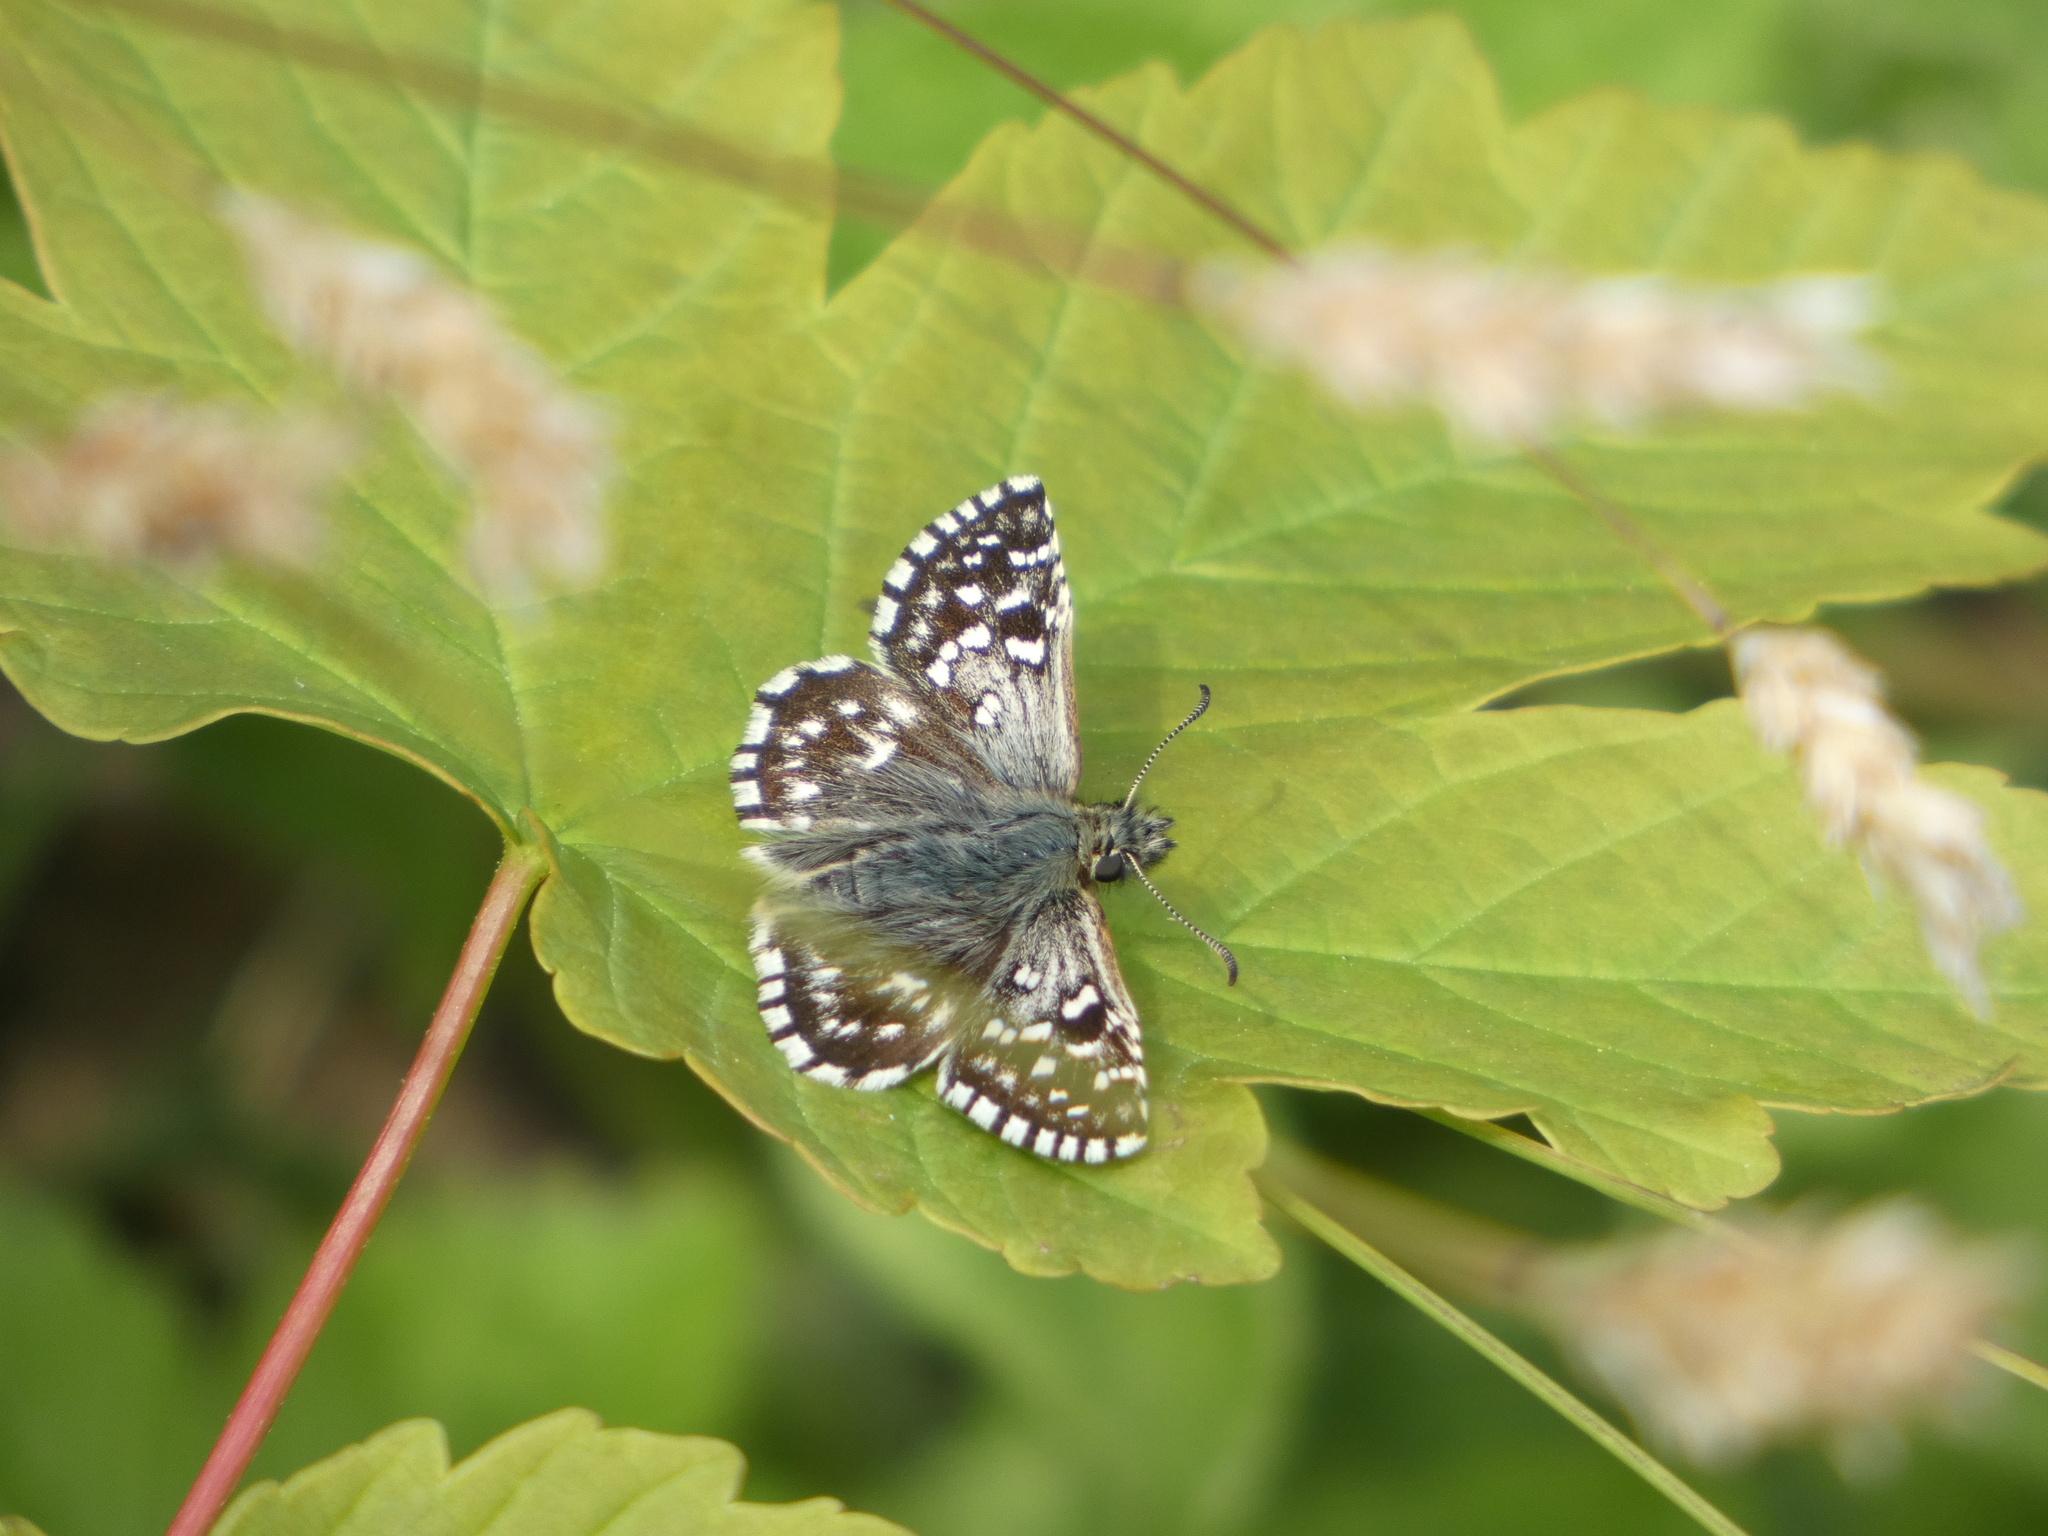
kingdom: Animalia
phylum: Arthropoda
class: Insecta
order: Lepidoptera
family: Hesperiidae
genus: Pyrgus
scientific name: Pyrgus malvae
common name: Grizzled skipper
